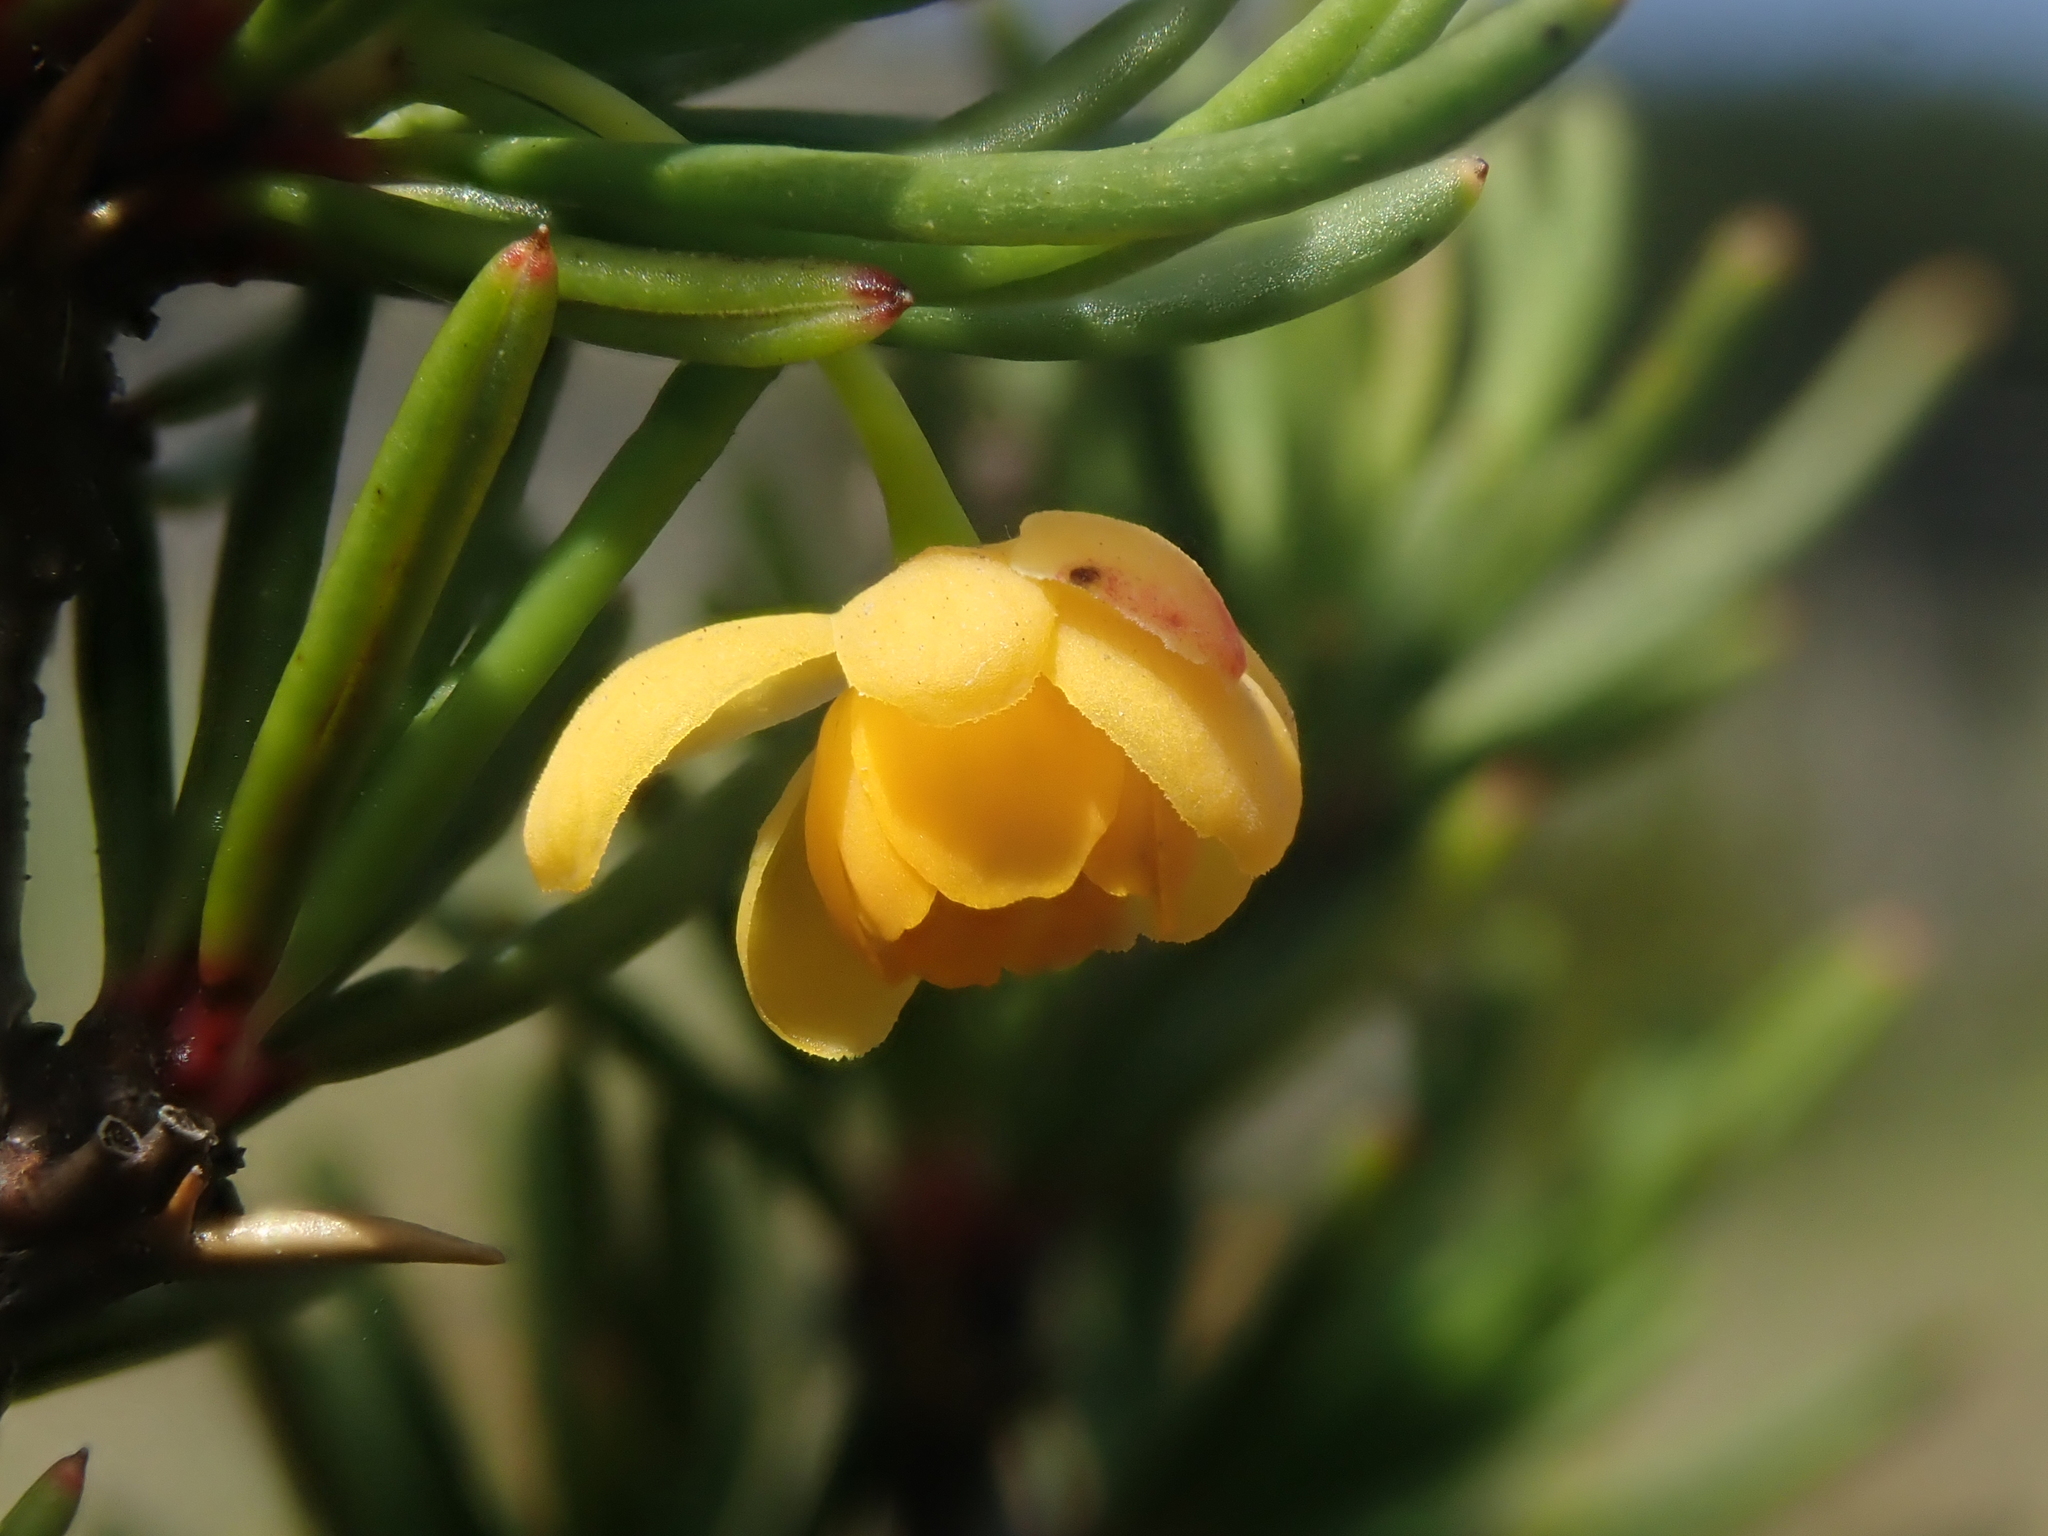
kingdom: Plantae
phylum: Tracheophyta
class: Magnoliopsida
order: Ranunculales
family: Berberidaceae
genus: Berberis
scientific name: Berberis empetrifolia
